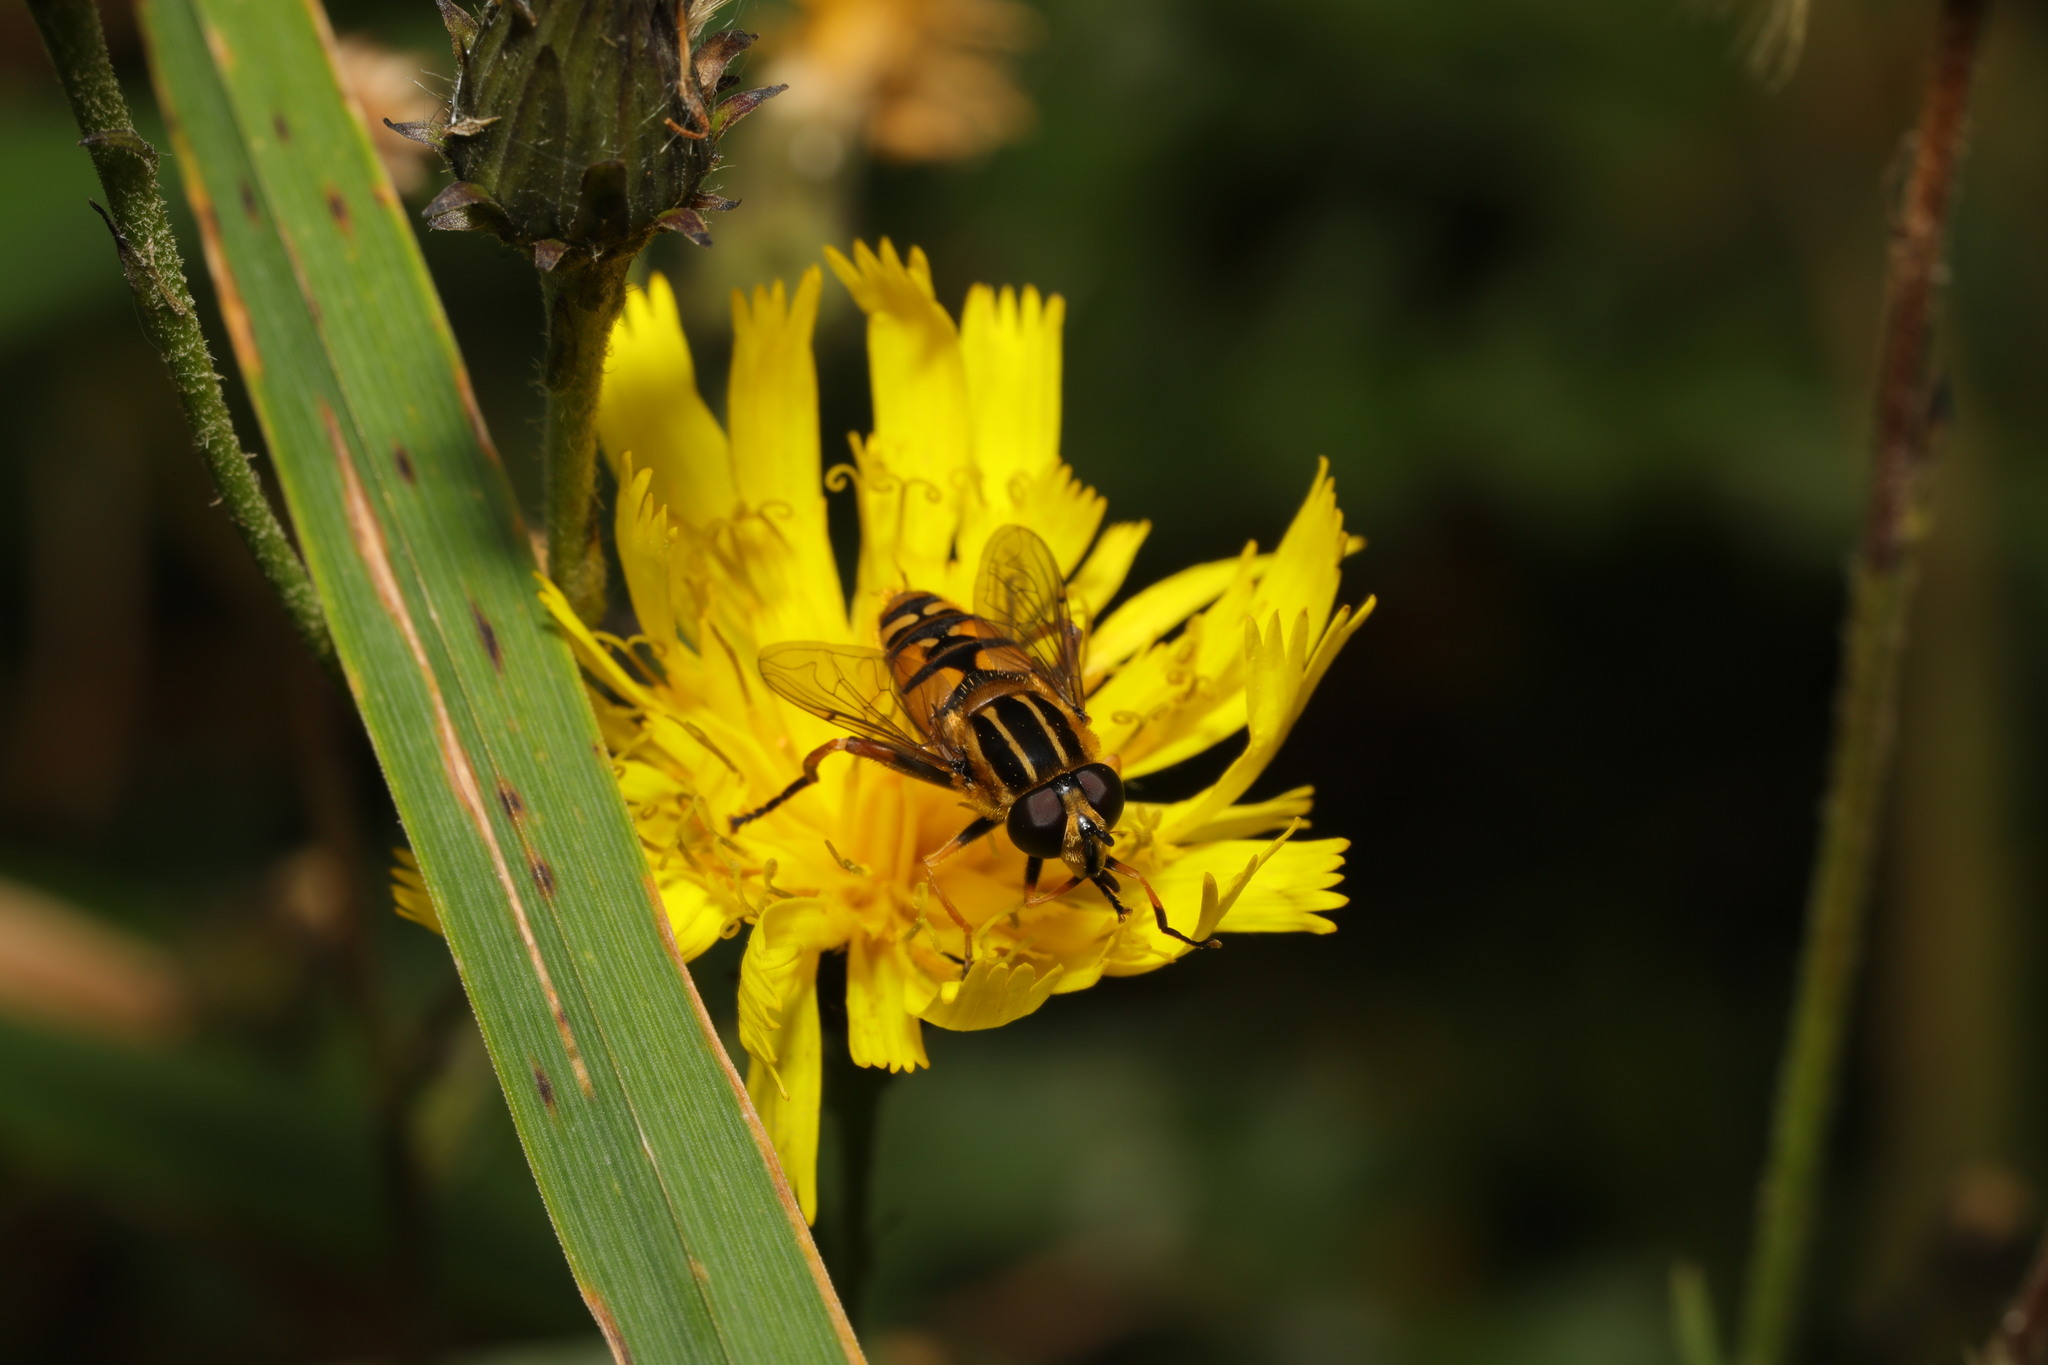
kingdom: Animalia
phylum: Arthropoda
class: Insecta
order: Diptera
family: Syrphidae
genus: Helophilus
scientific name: Helophilus pendulus
